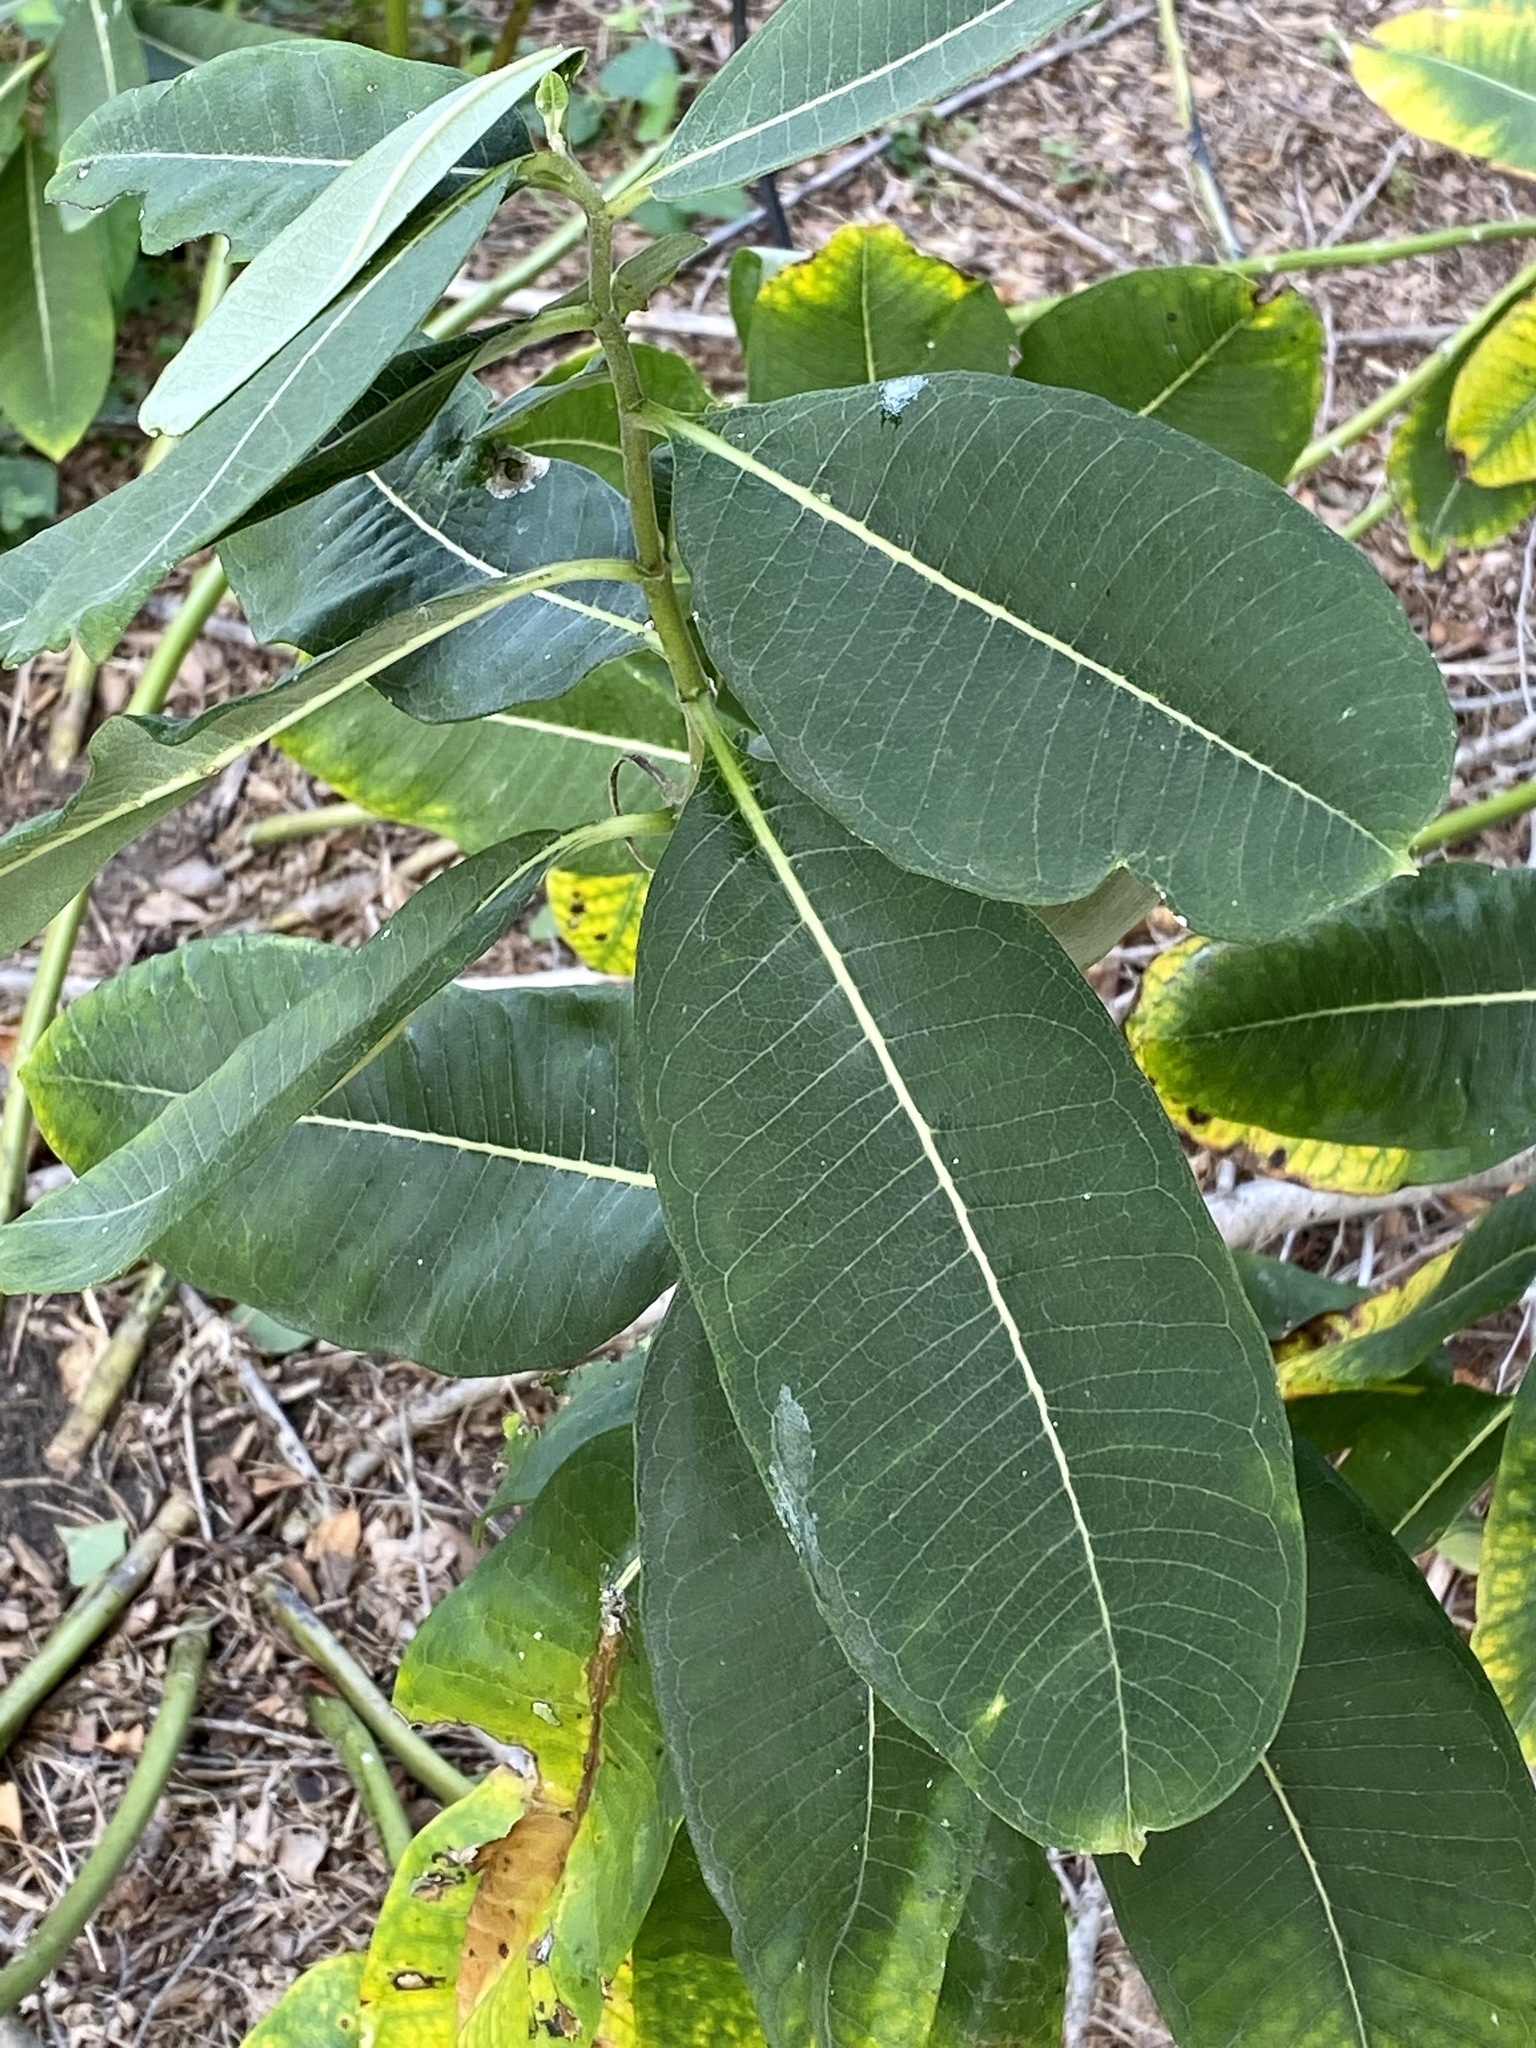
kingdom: Plantae
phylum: Tracheophyta
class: Magnoliopsida
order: Gentianales
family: Apocynaceae
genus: Asclepias
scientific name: Asclepias syriaca
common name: Common milkweed
